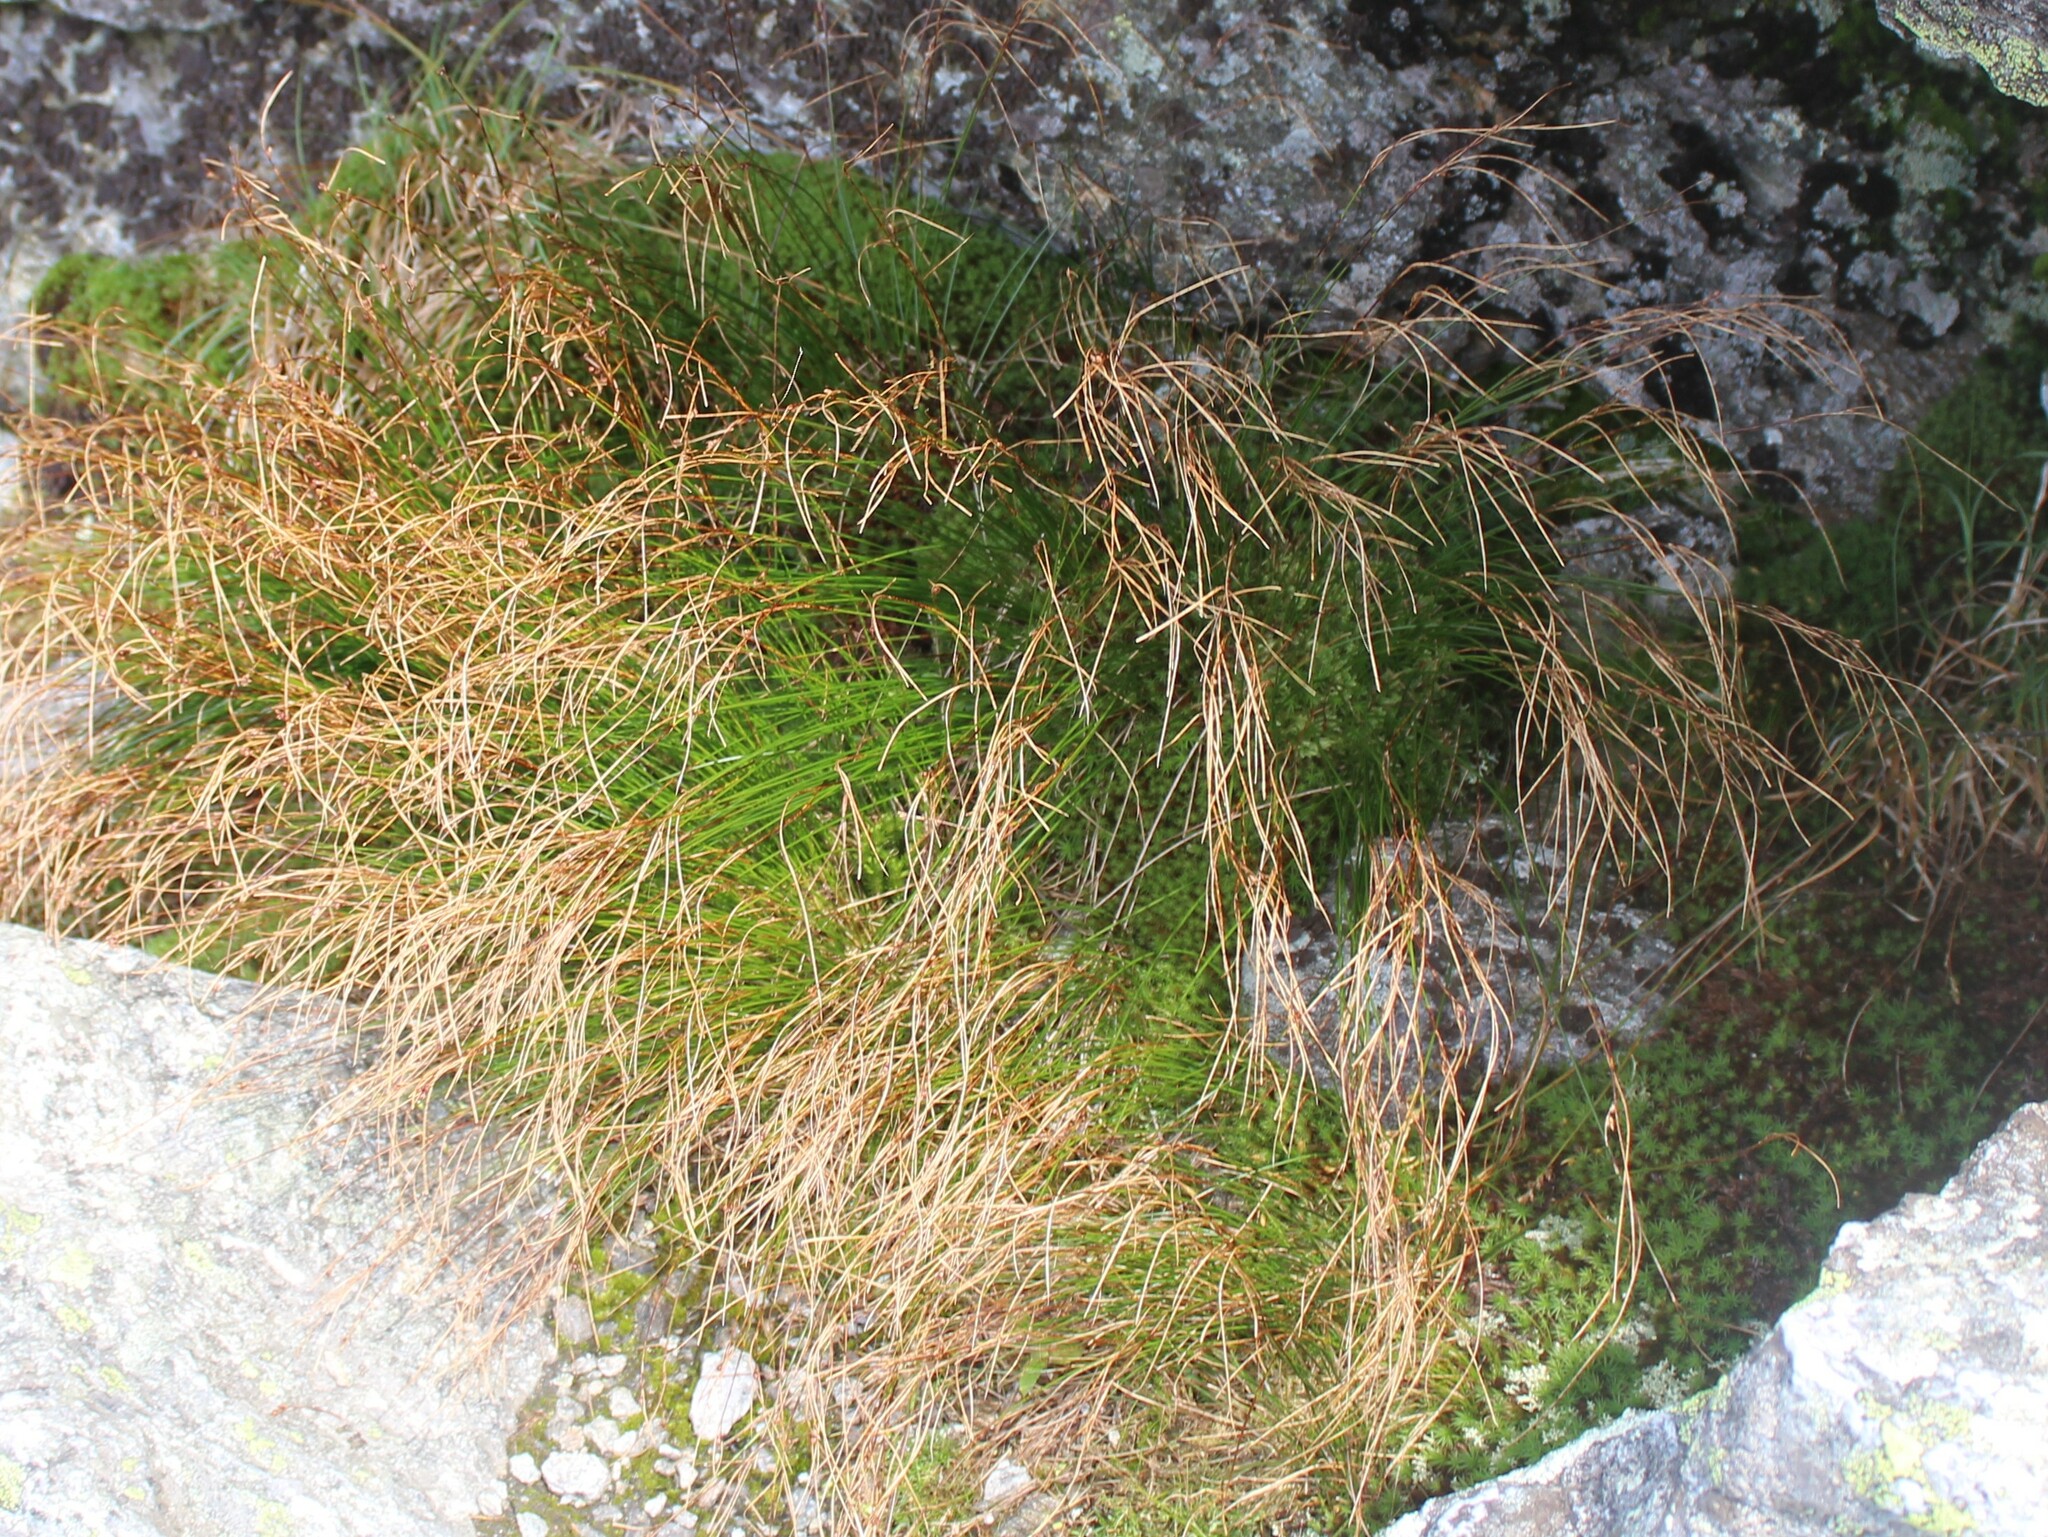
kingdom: Plantae
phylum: Tracheophyta
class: Liliopsida
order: Poales
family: Juncaceae
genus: Oreojuncus
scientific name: Oreojuncus trifidus
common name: Highland rush
